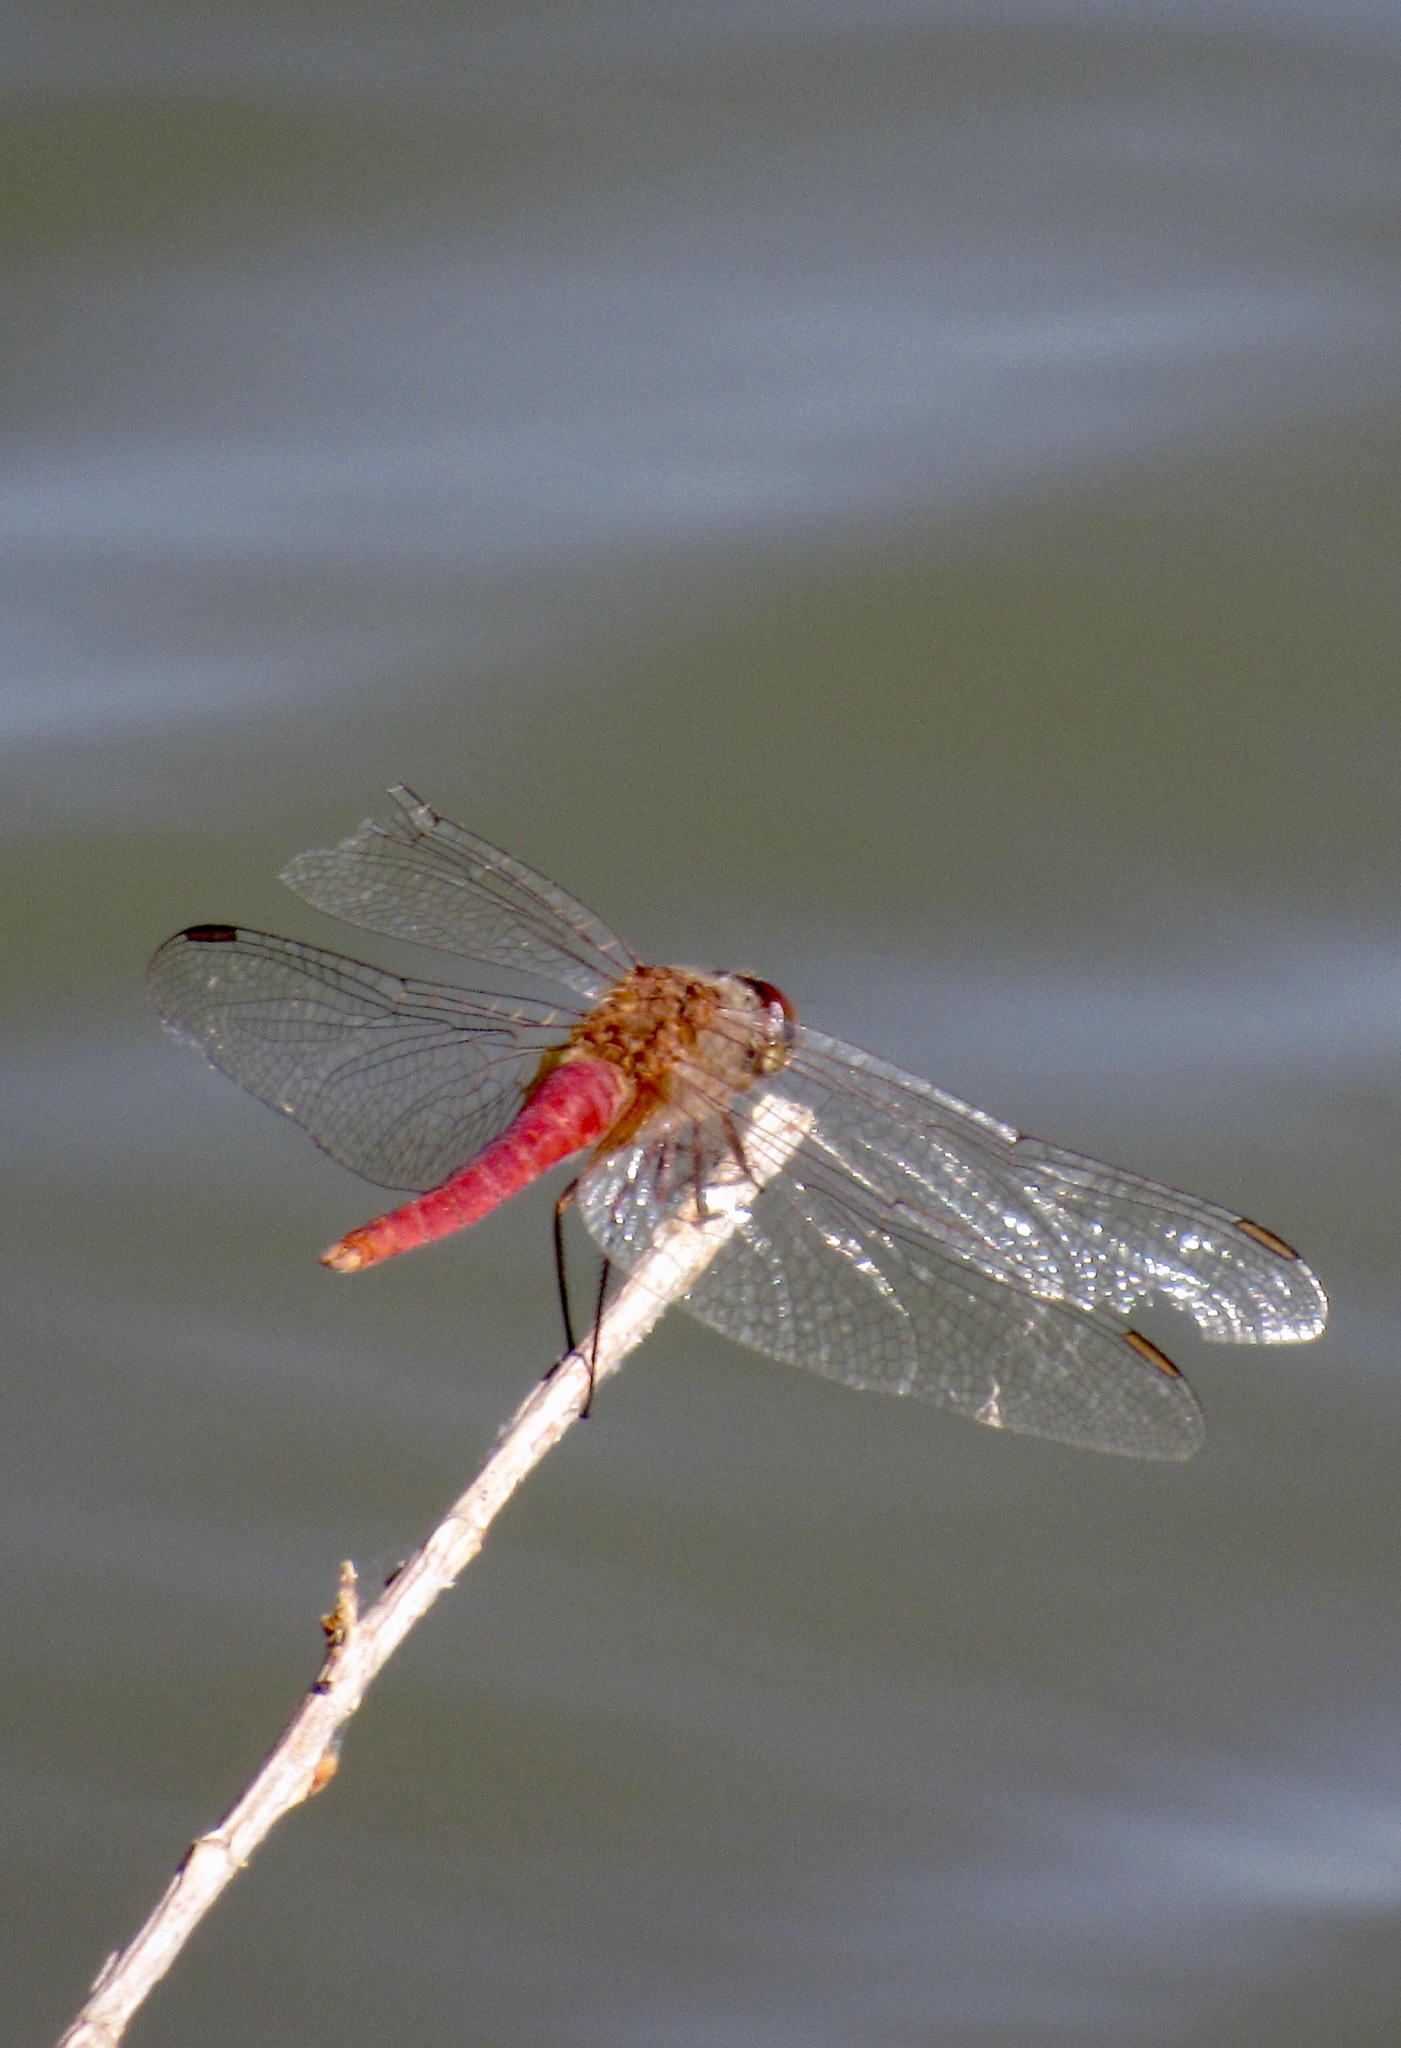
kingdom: Animalia
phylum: Arthropoda
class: Insecta
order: Odonata
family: Libellulidae
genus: Brachymesia
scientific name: Brachymesia furcata
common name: Red-taled pennant
